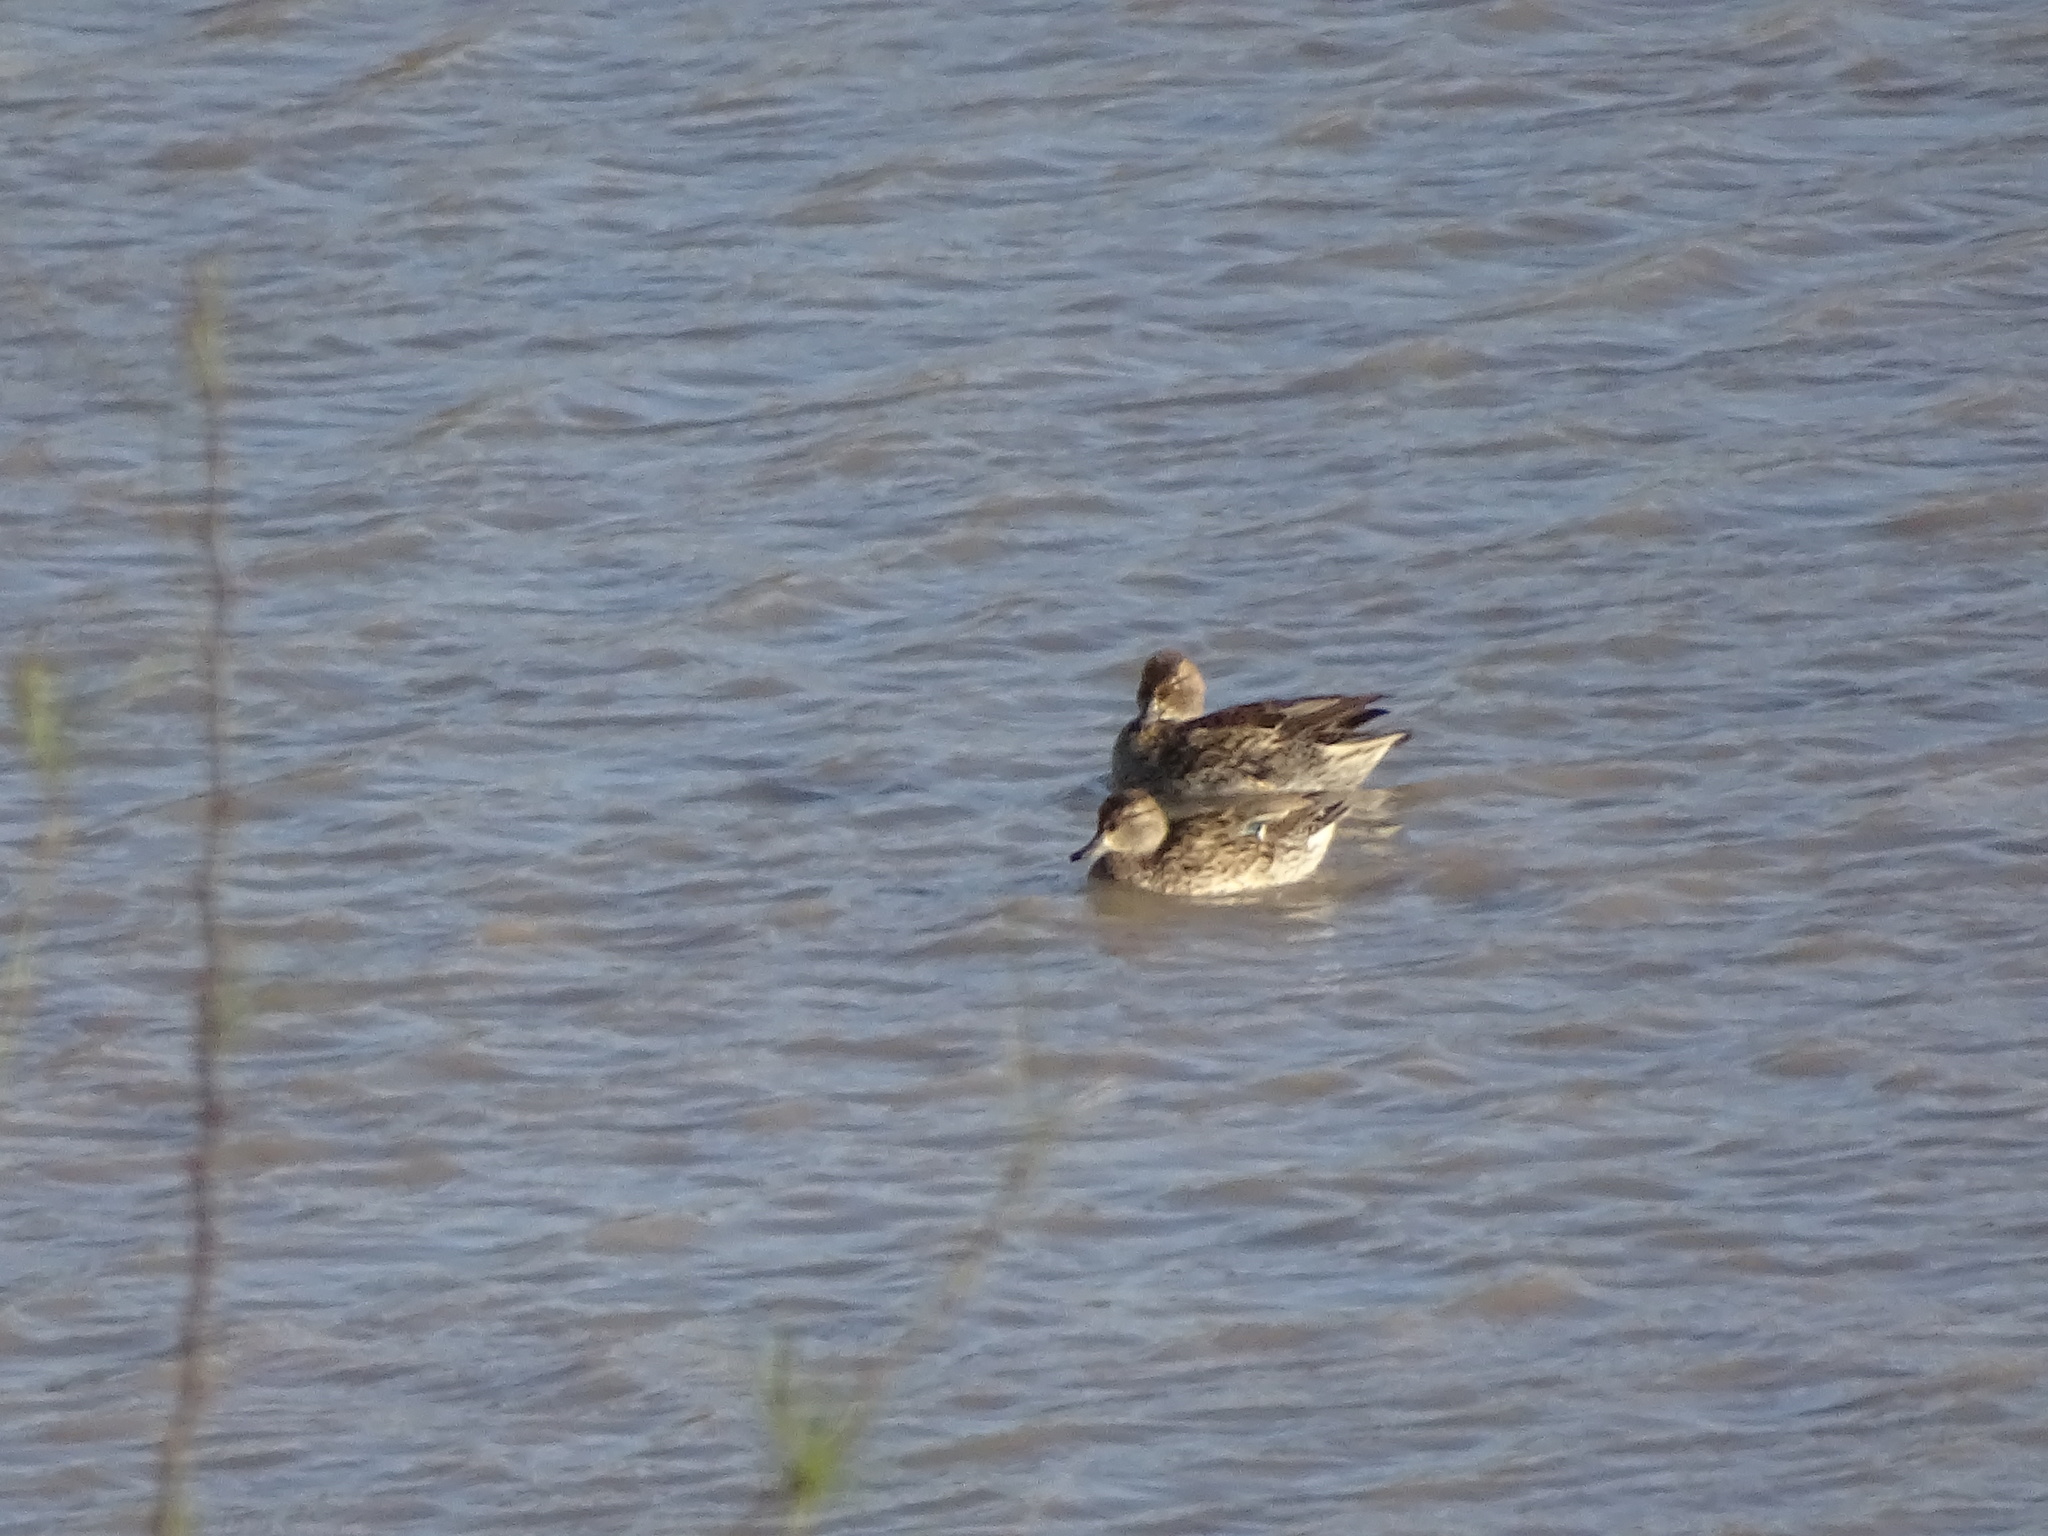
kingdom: Animalia
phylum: Chordata
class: Aves
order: Anseriformes
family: Anatidae
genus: Anas
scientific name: Anas crecca
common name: Eurasian teal
